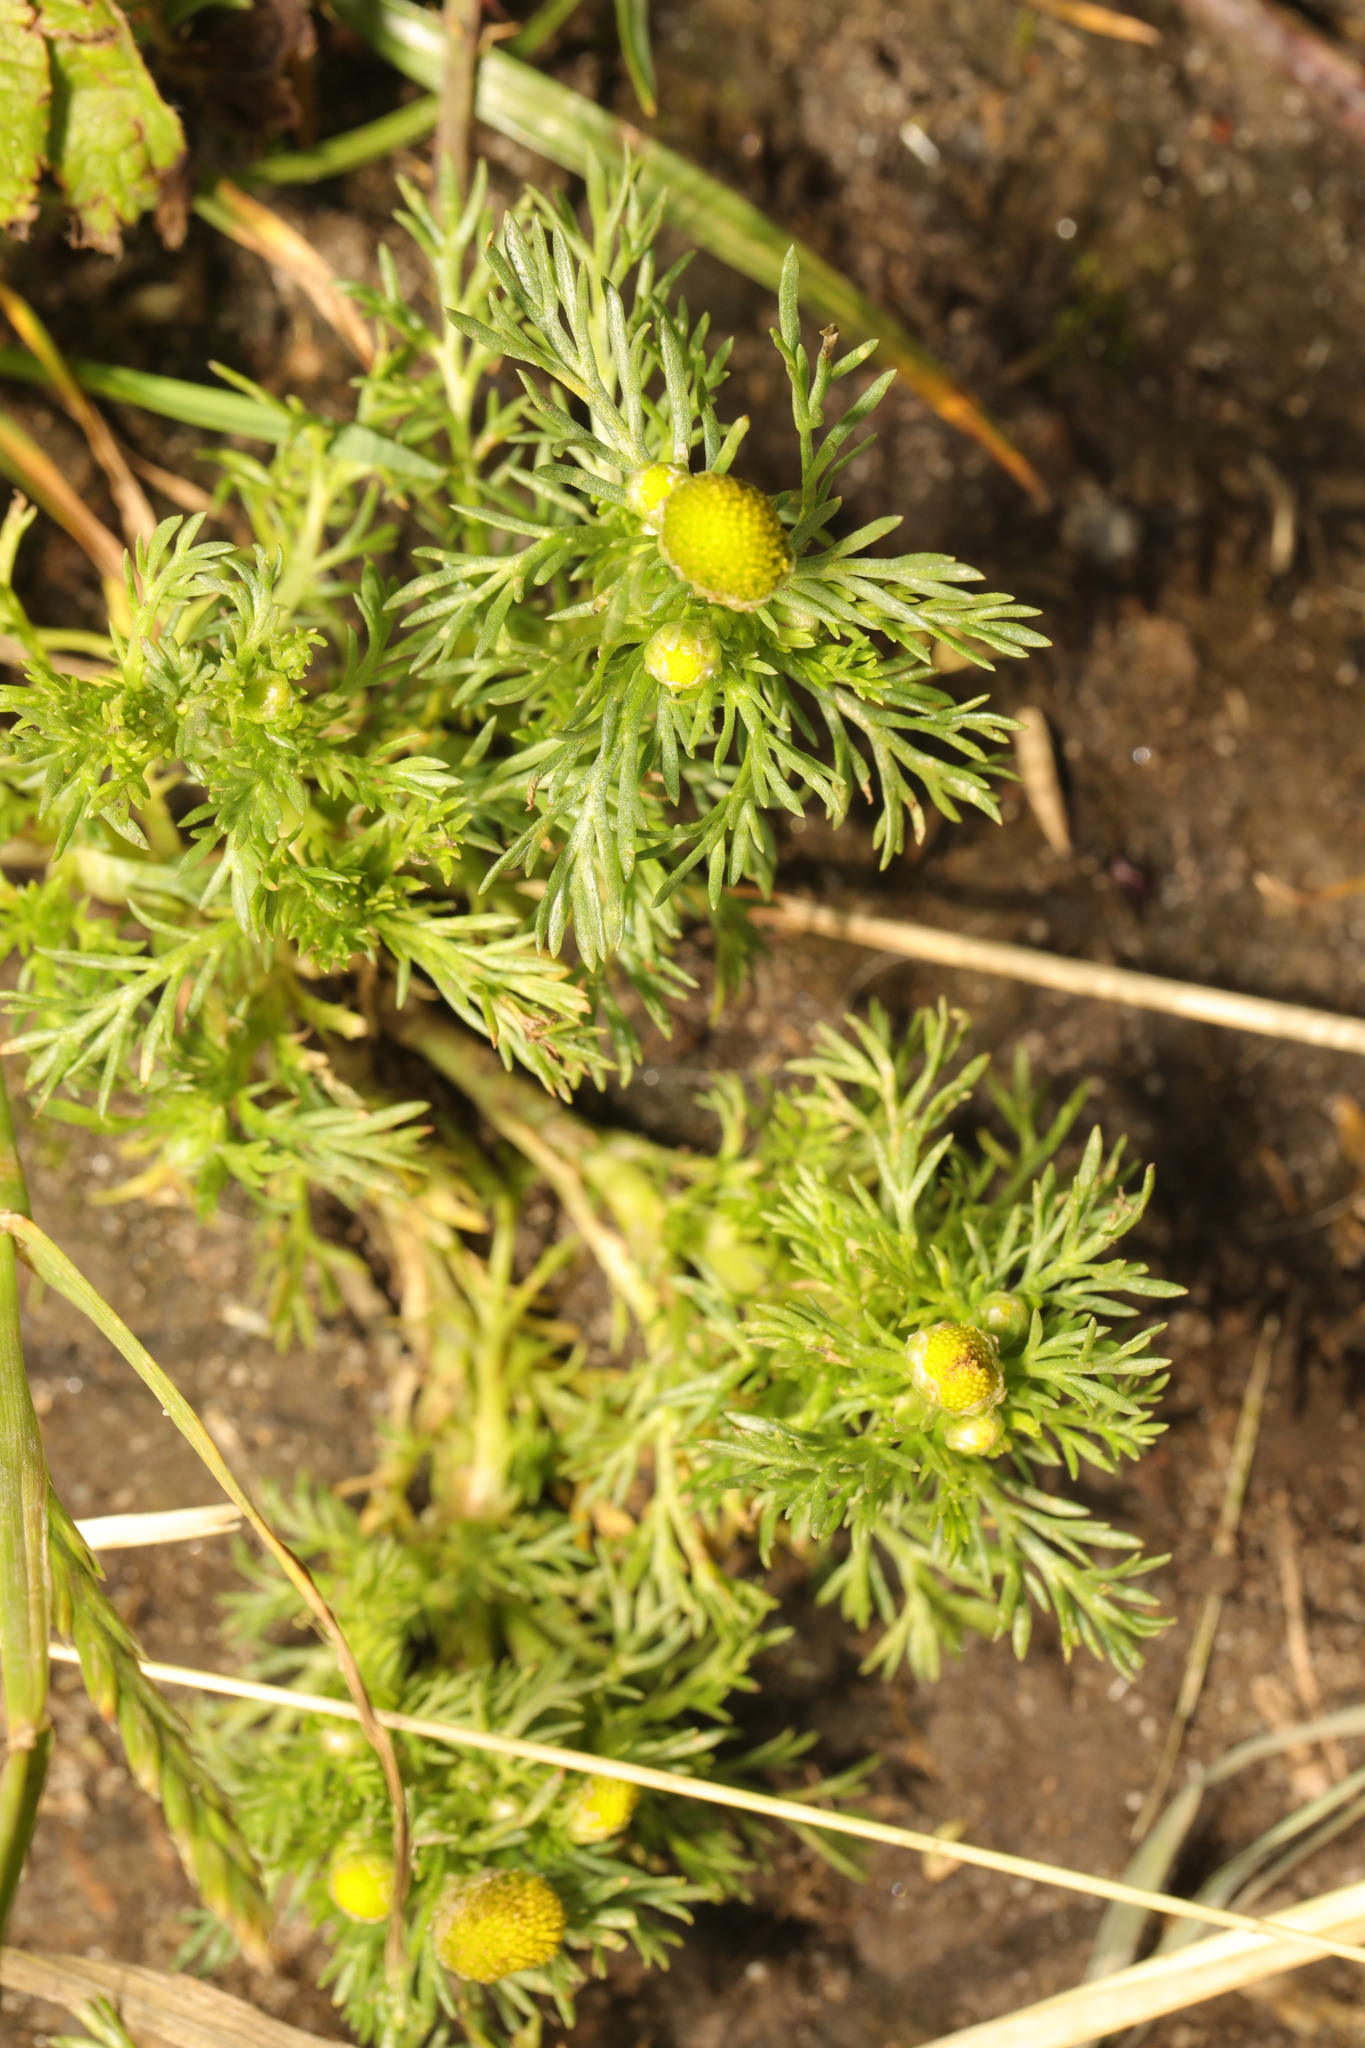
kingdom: Plantae
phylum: Tracheophyta
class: Magnoliopsida
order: Asterales
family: Asteraceae
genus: Matricaria
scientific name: Matricaria discoidea
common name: Disc mayweed
